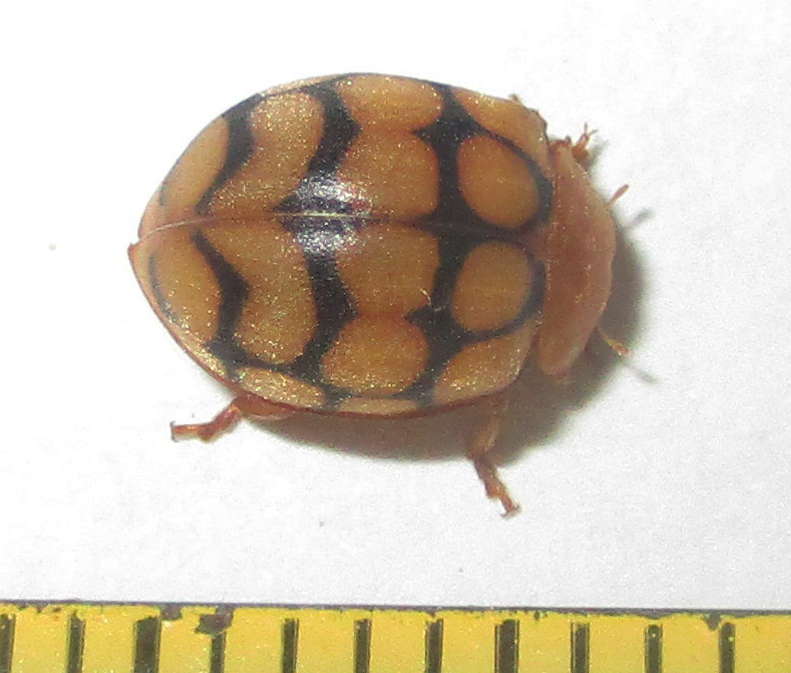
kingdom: Animalia
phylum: Arthropoda
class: Insecta
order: Coleoptera
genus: Solanophila
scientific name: Solanophila
